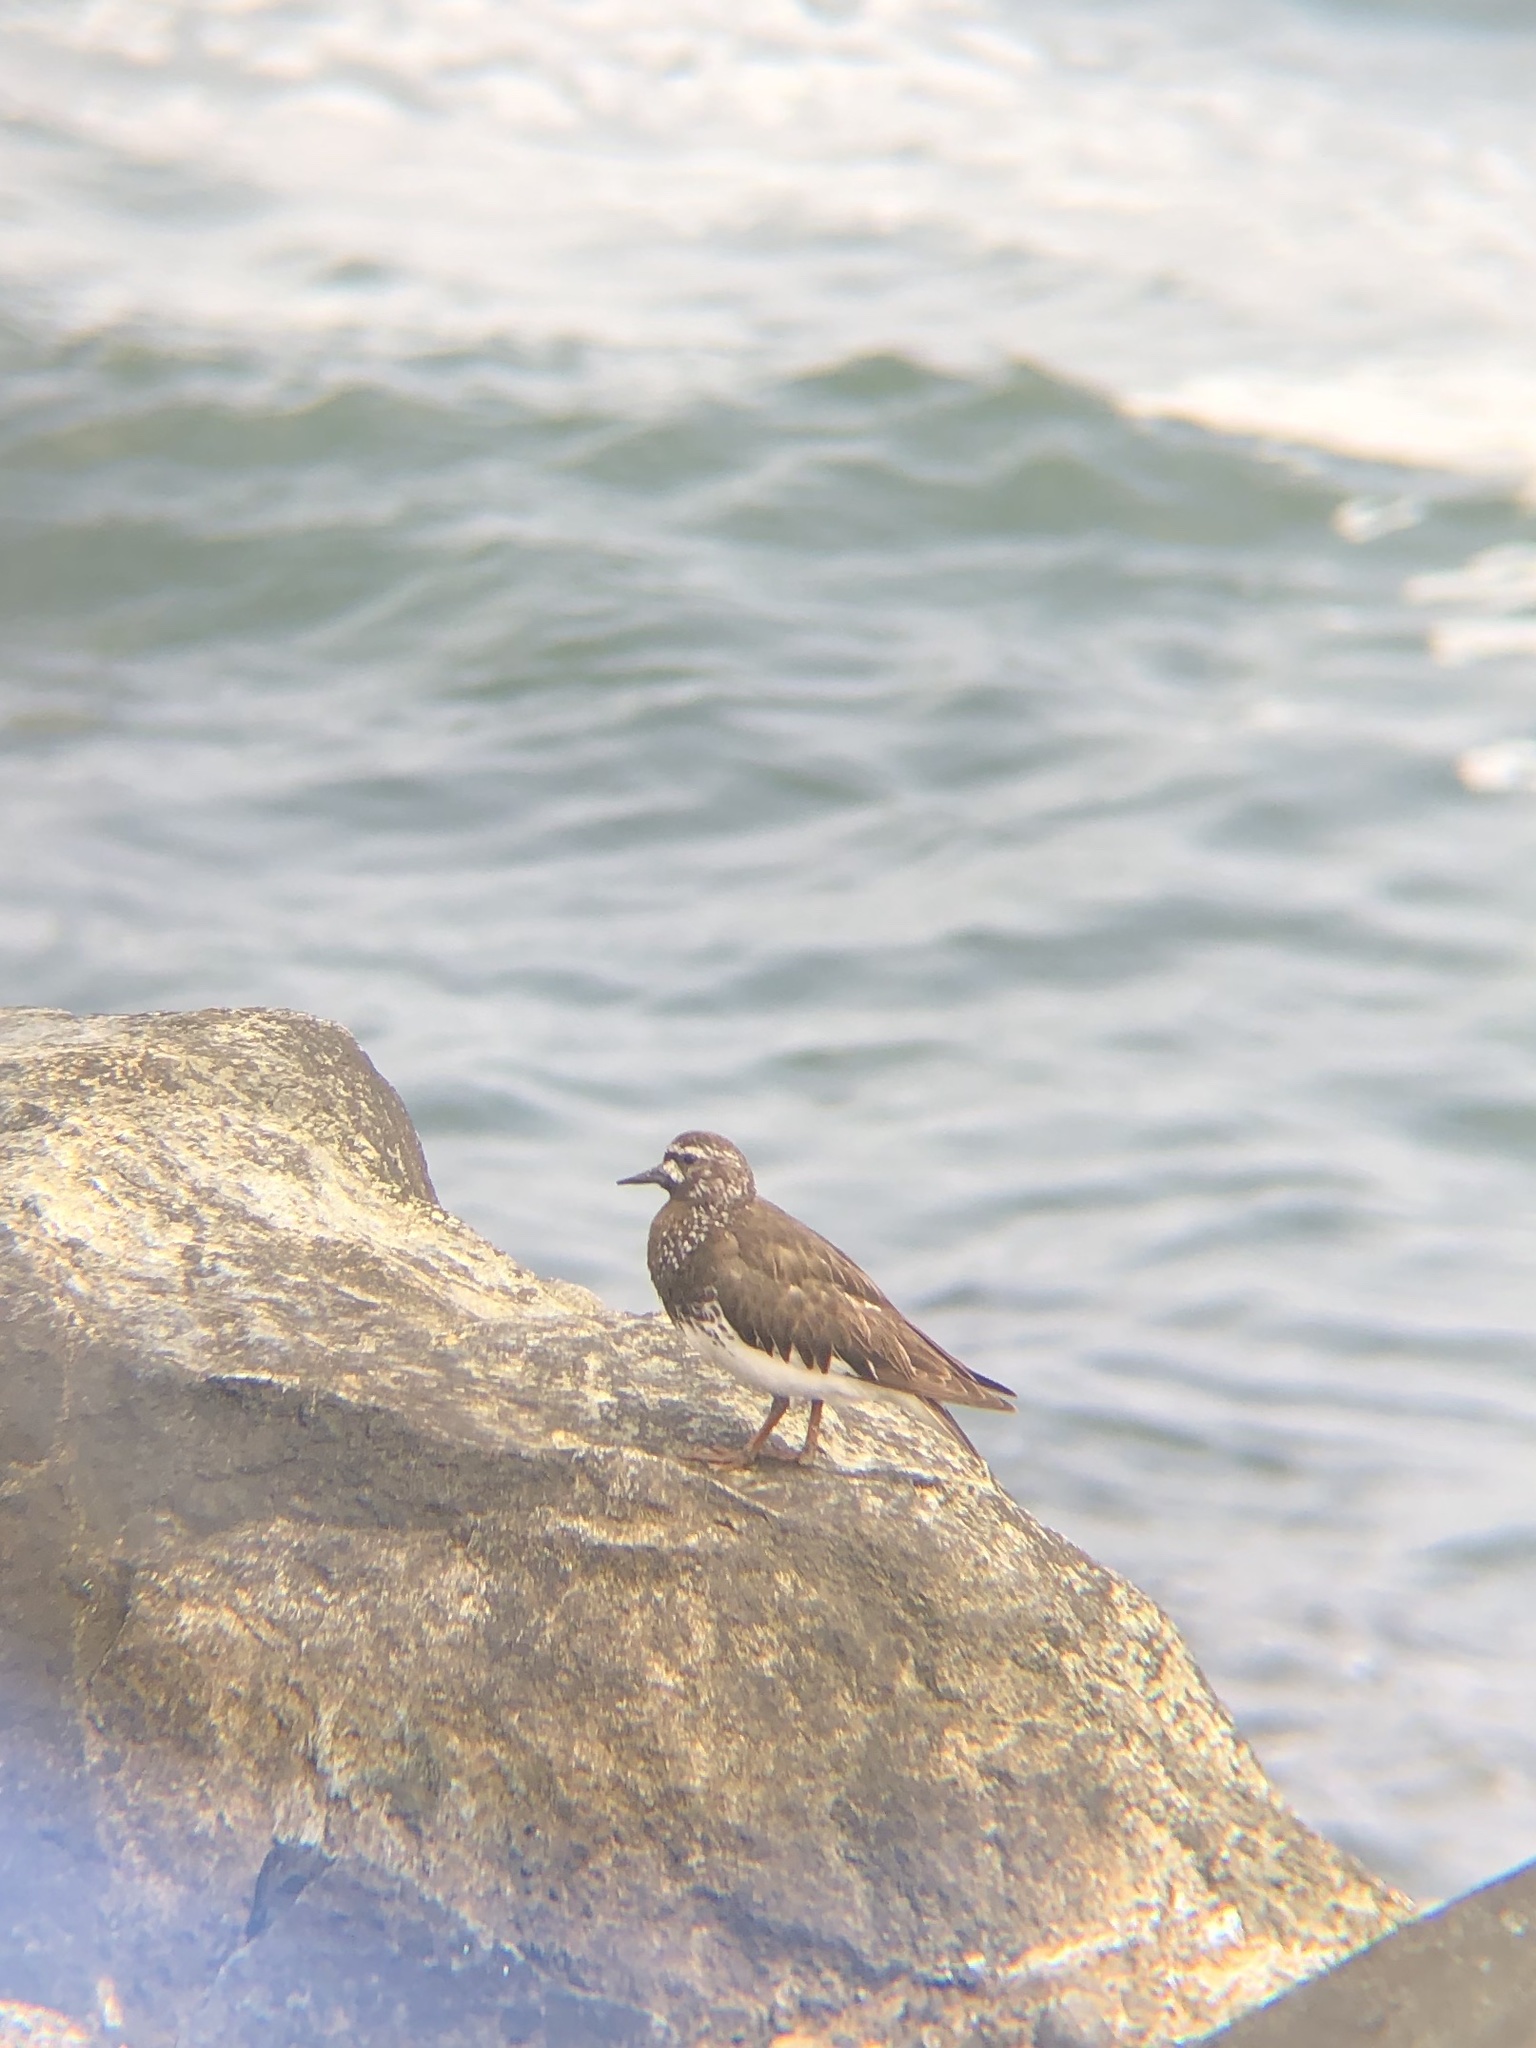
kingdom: Animalia
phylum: Chordata
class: Aves
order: Charadriiformes
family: Scolopacidae
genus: Arenaria
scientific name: Arenaria melanocephala
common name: Black turnstone
